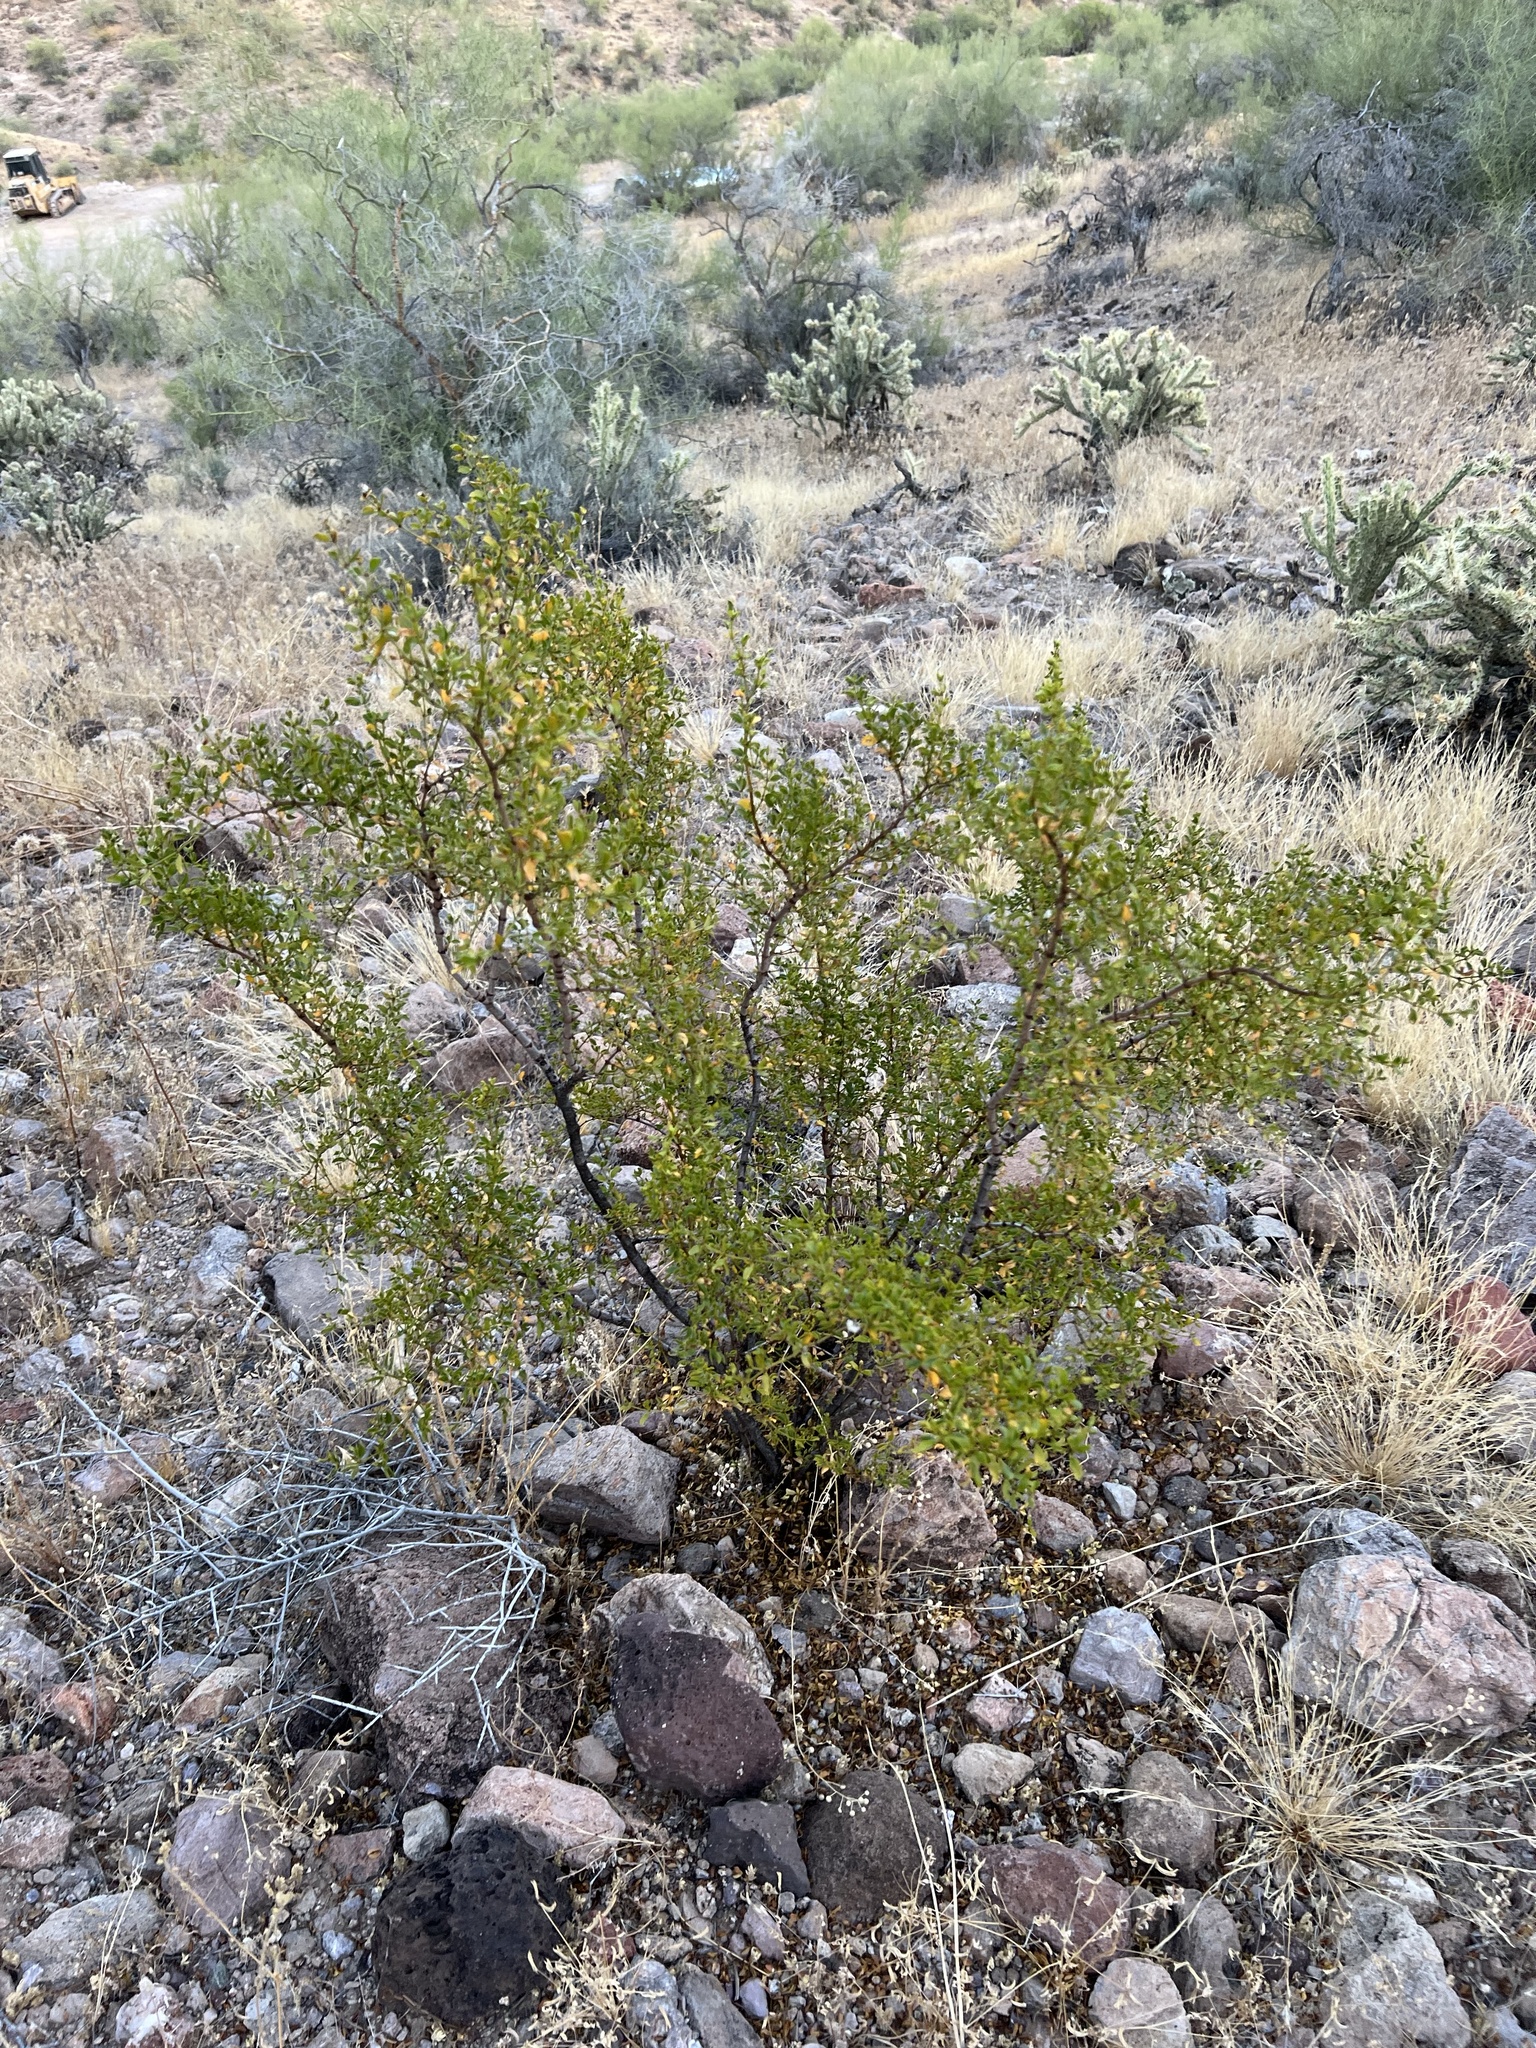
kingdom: Plantae
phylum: Tracheophyta
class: Magnoliopsida
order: Zygophyllales
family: Zygophyllaceae
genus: Larrea
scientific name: Larrea tridentata
